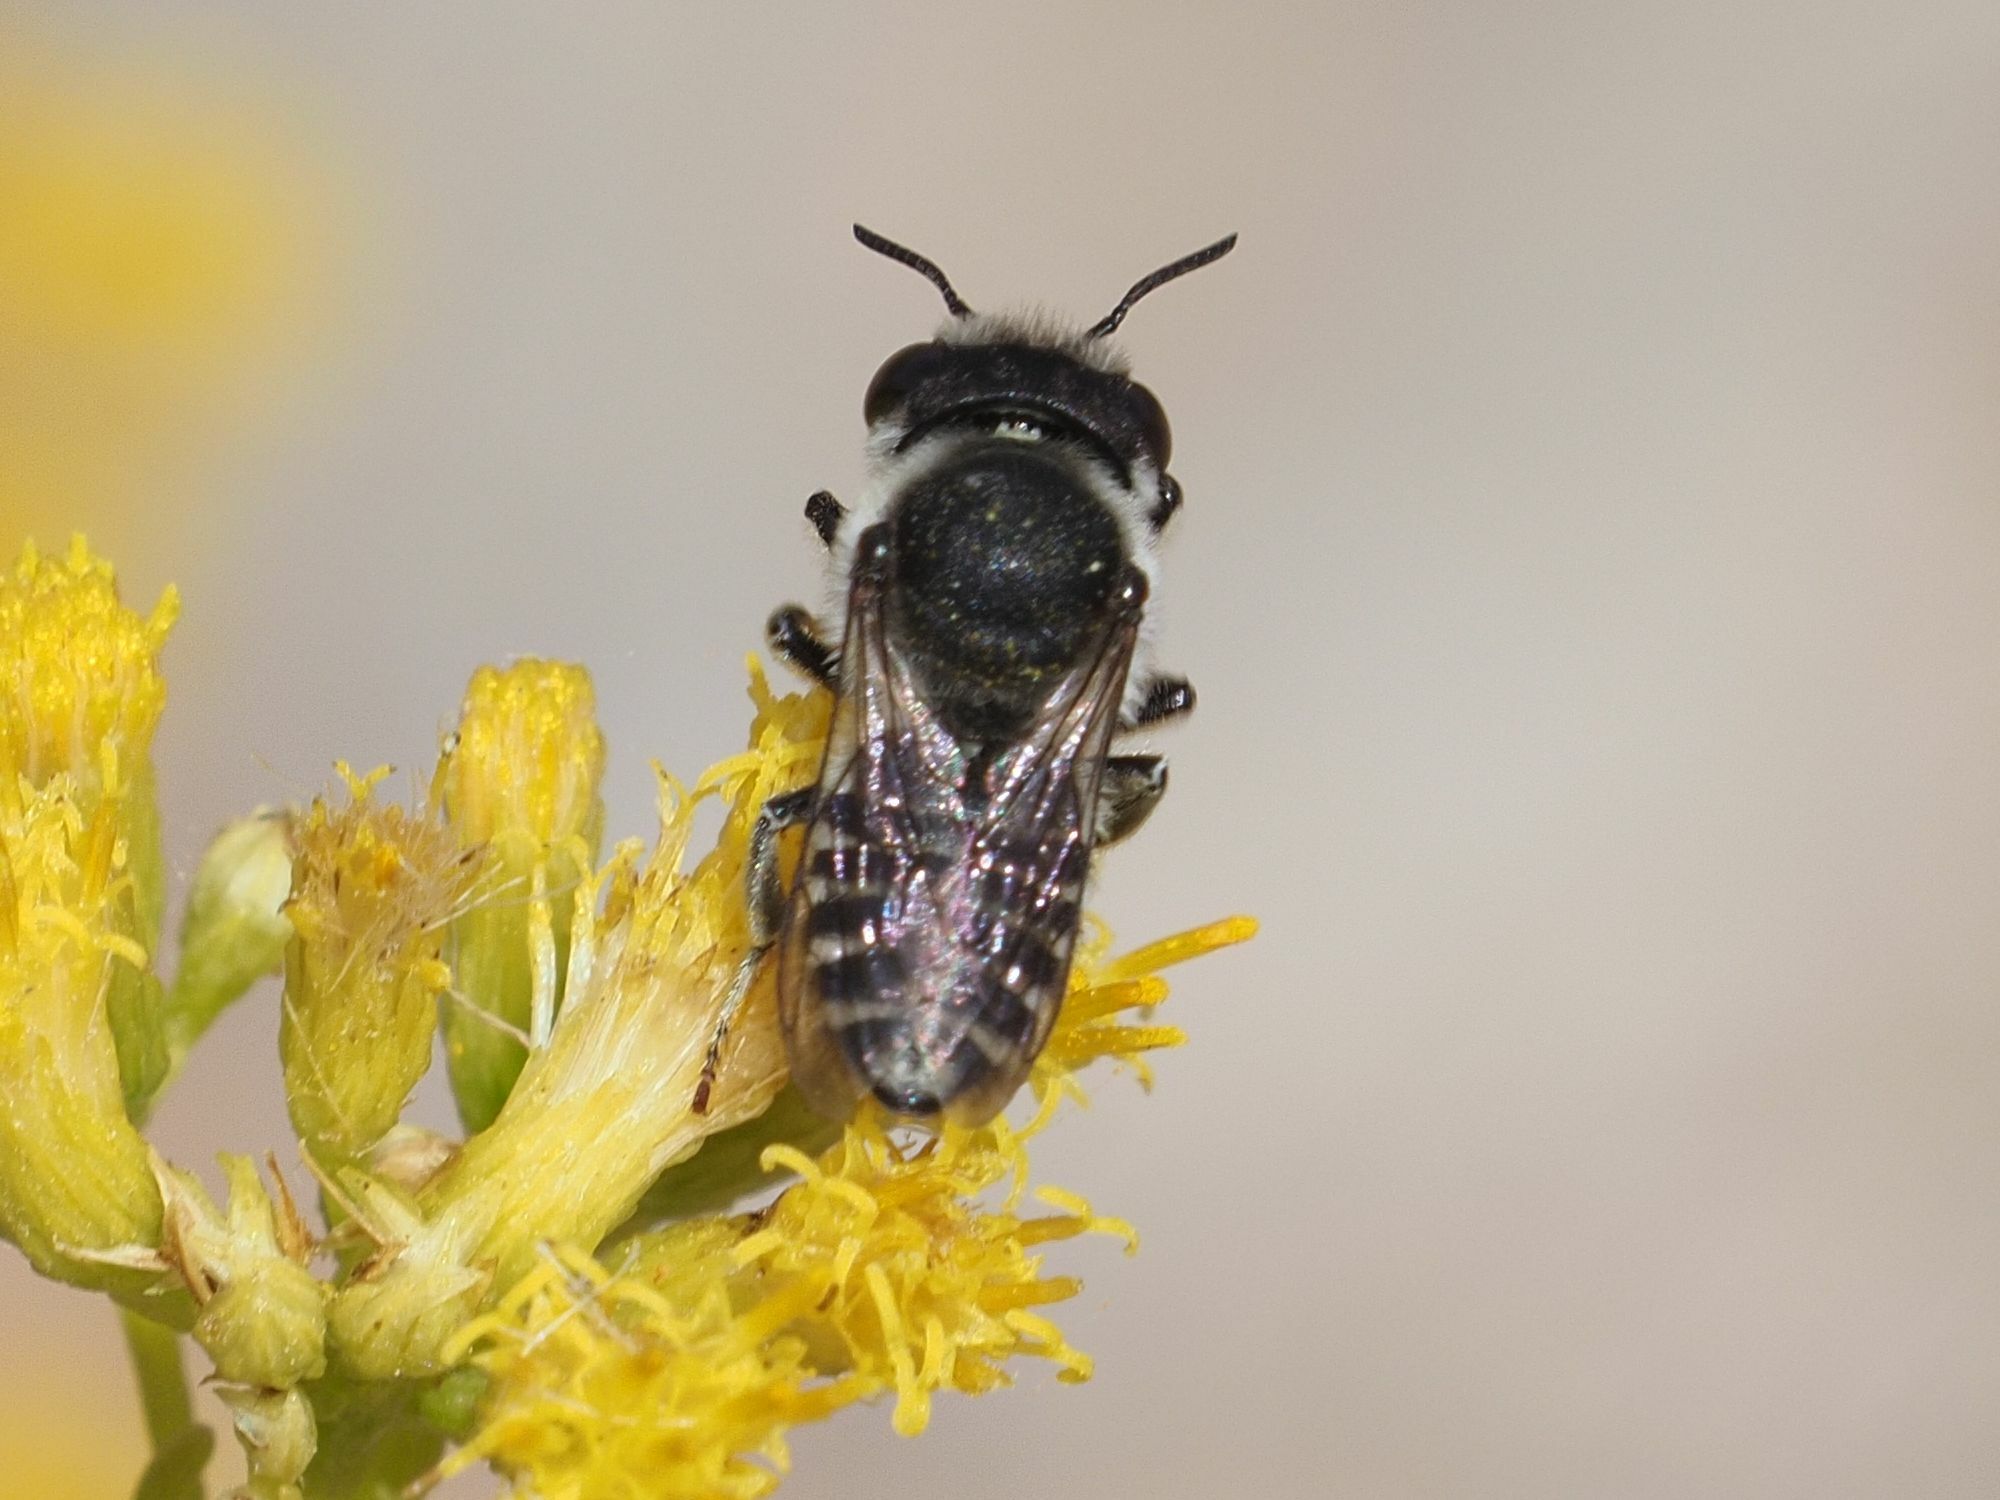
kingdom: Animalia
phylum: Arthropoda
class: Insecta
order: Hymenoptera
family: Megachilidae
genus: Megachile
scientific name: Megachile canariensis
